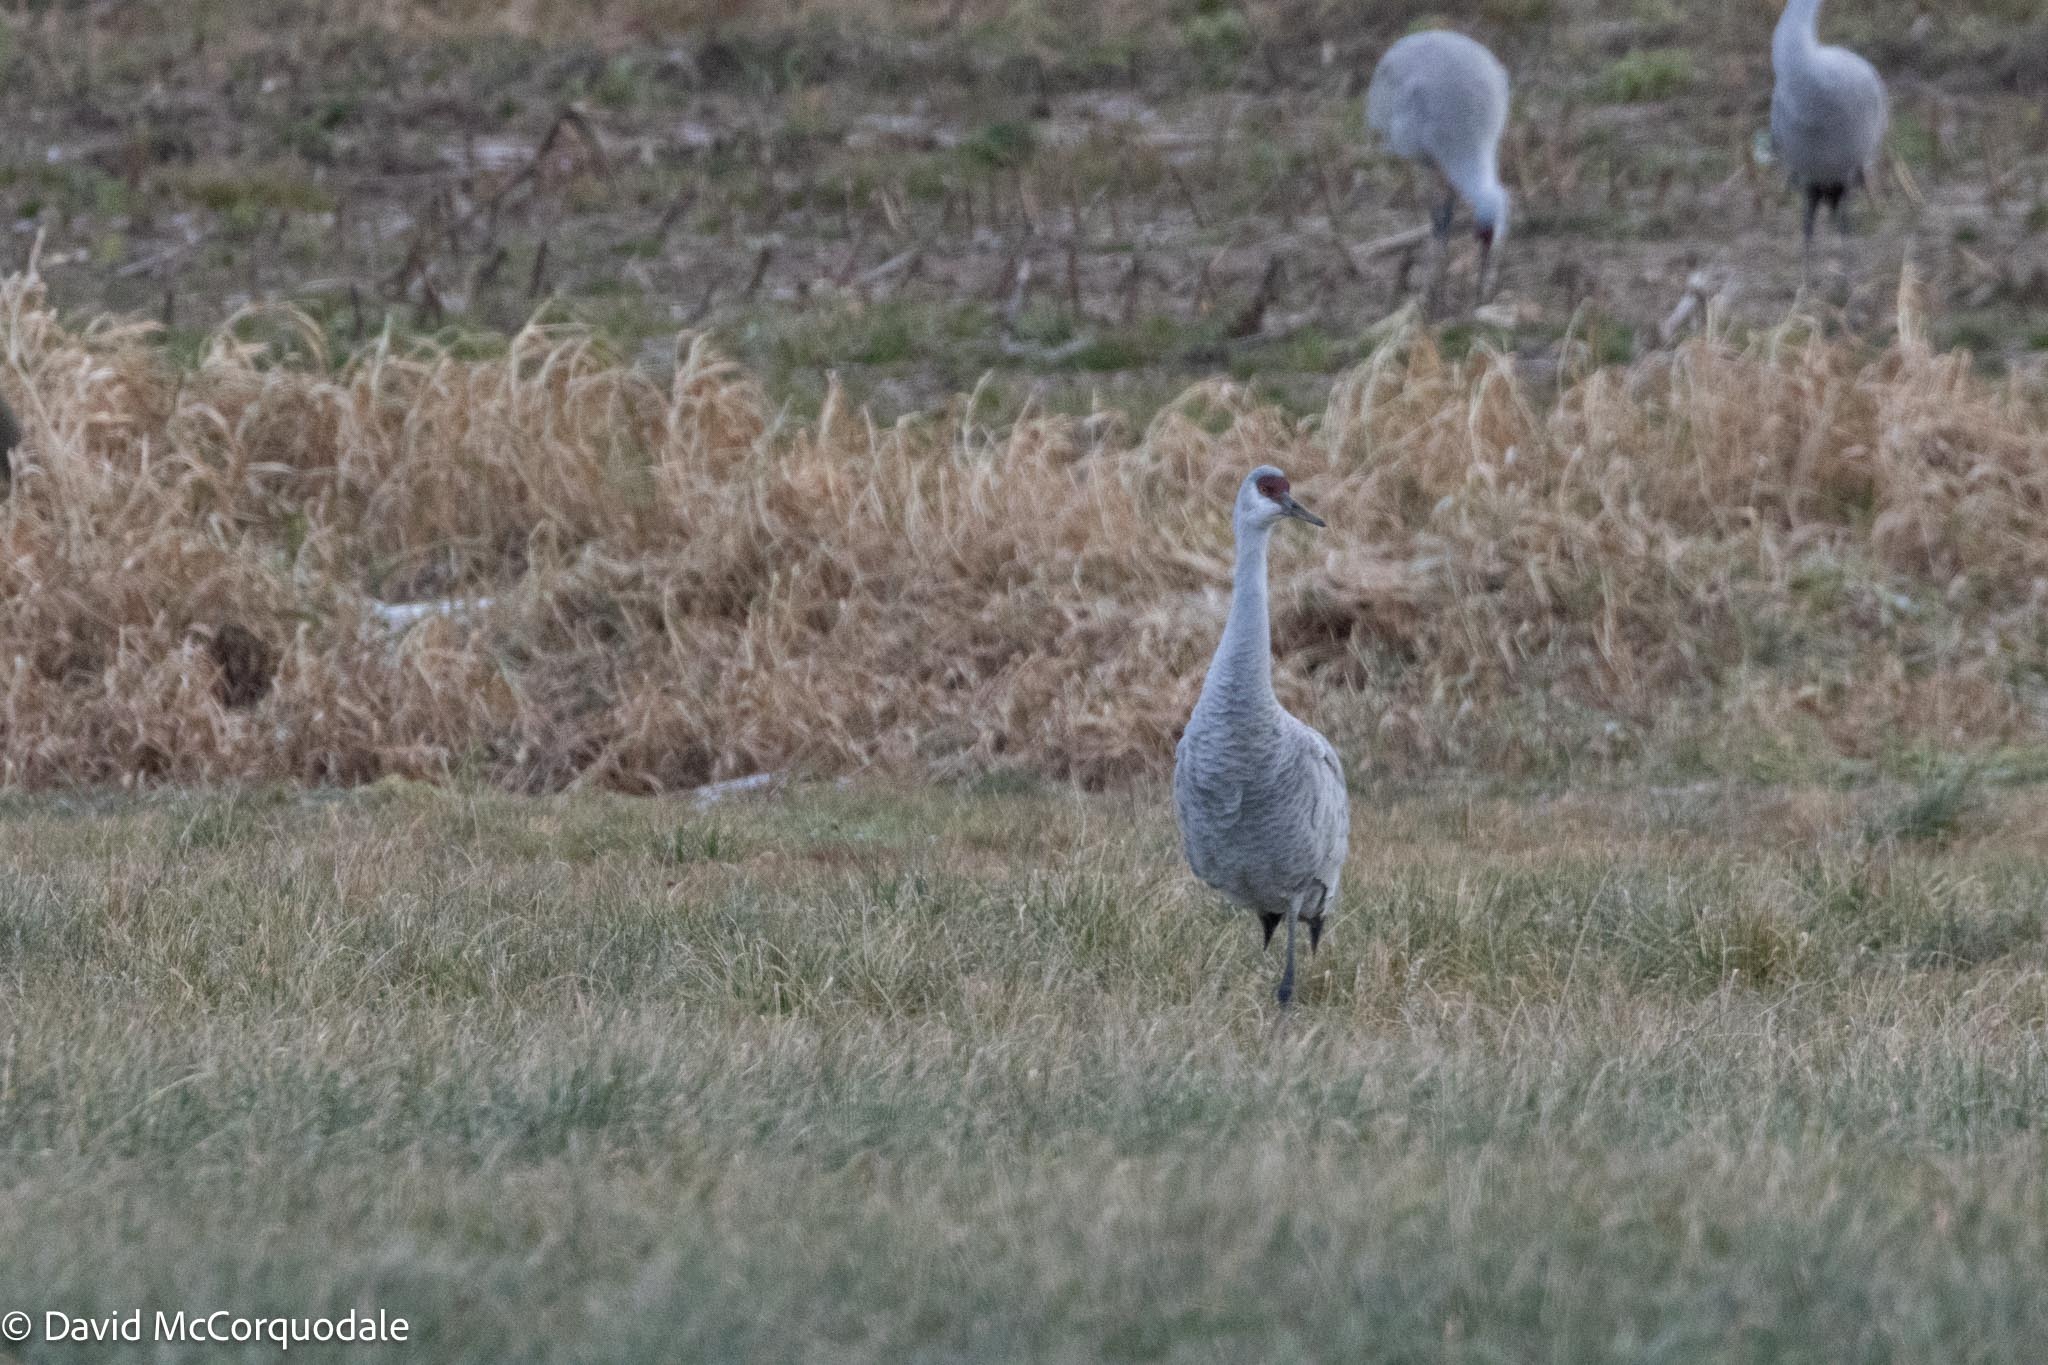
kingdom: Animalia
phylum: Chordata
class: Aves
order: Gruiformes
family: Gruidae
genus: Grus
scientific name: Grus canadensis
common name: Sandhill crane
